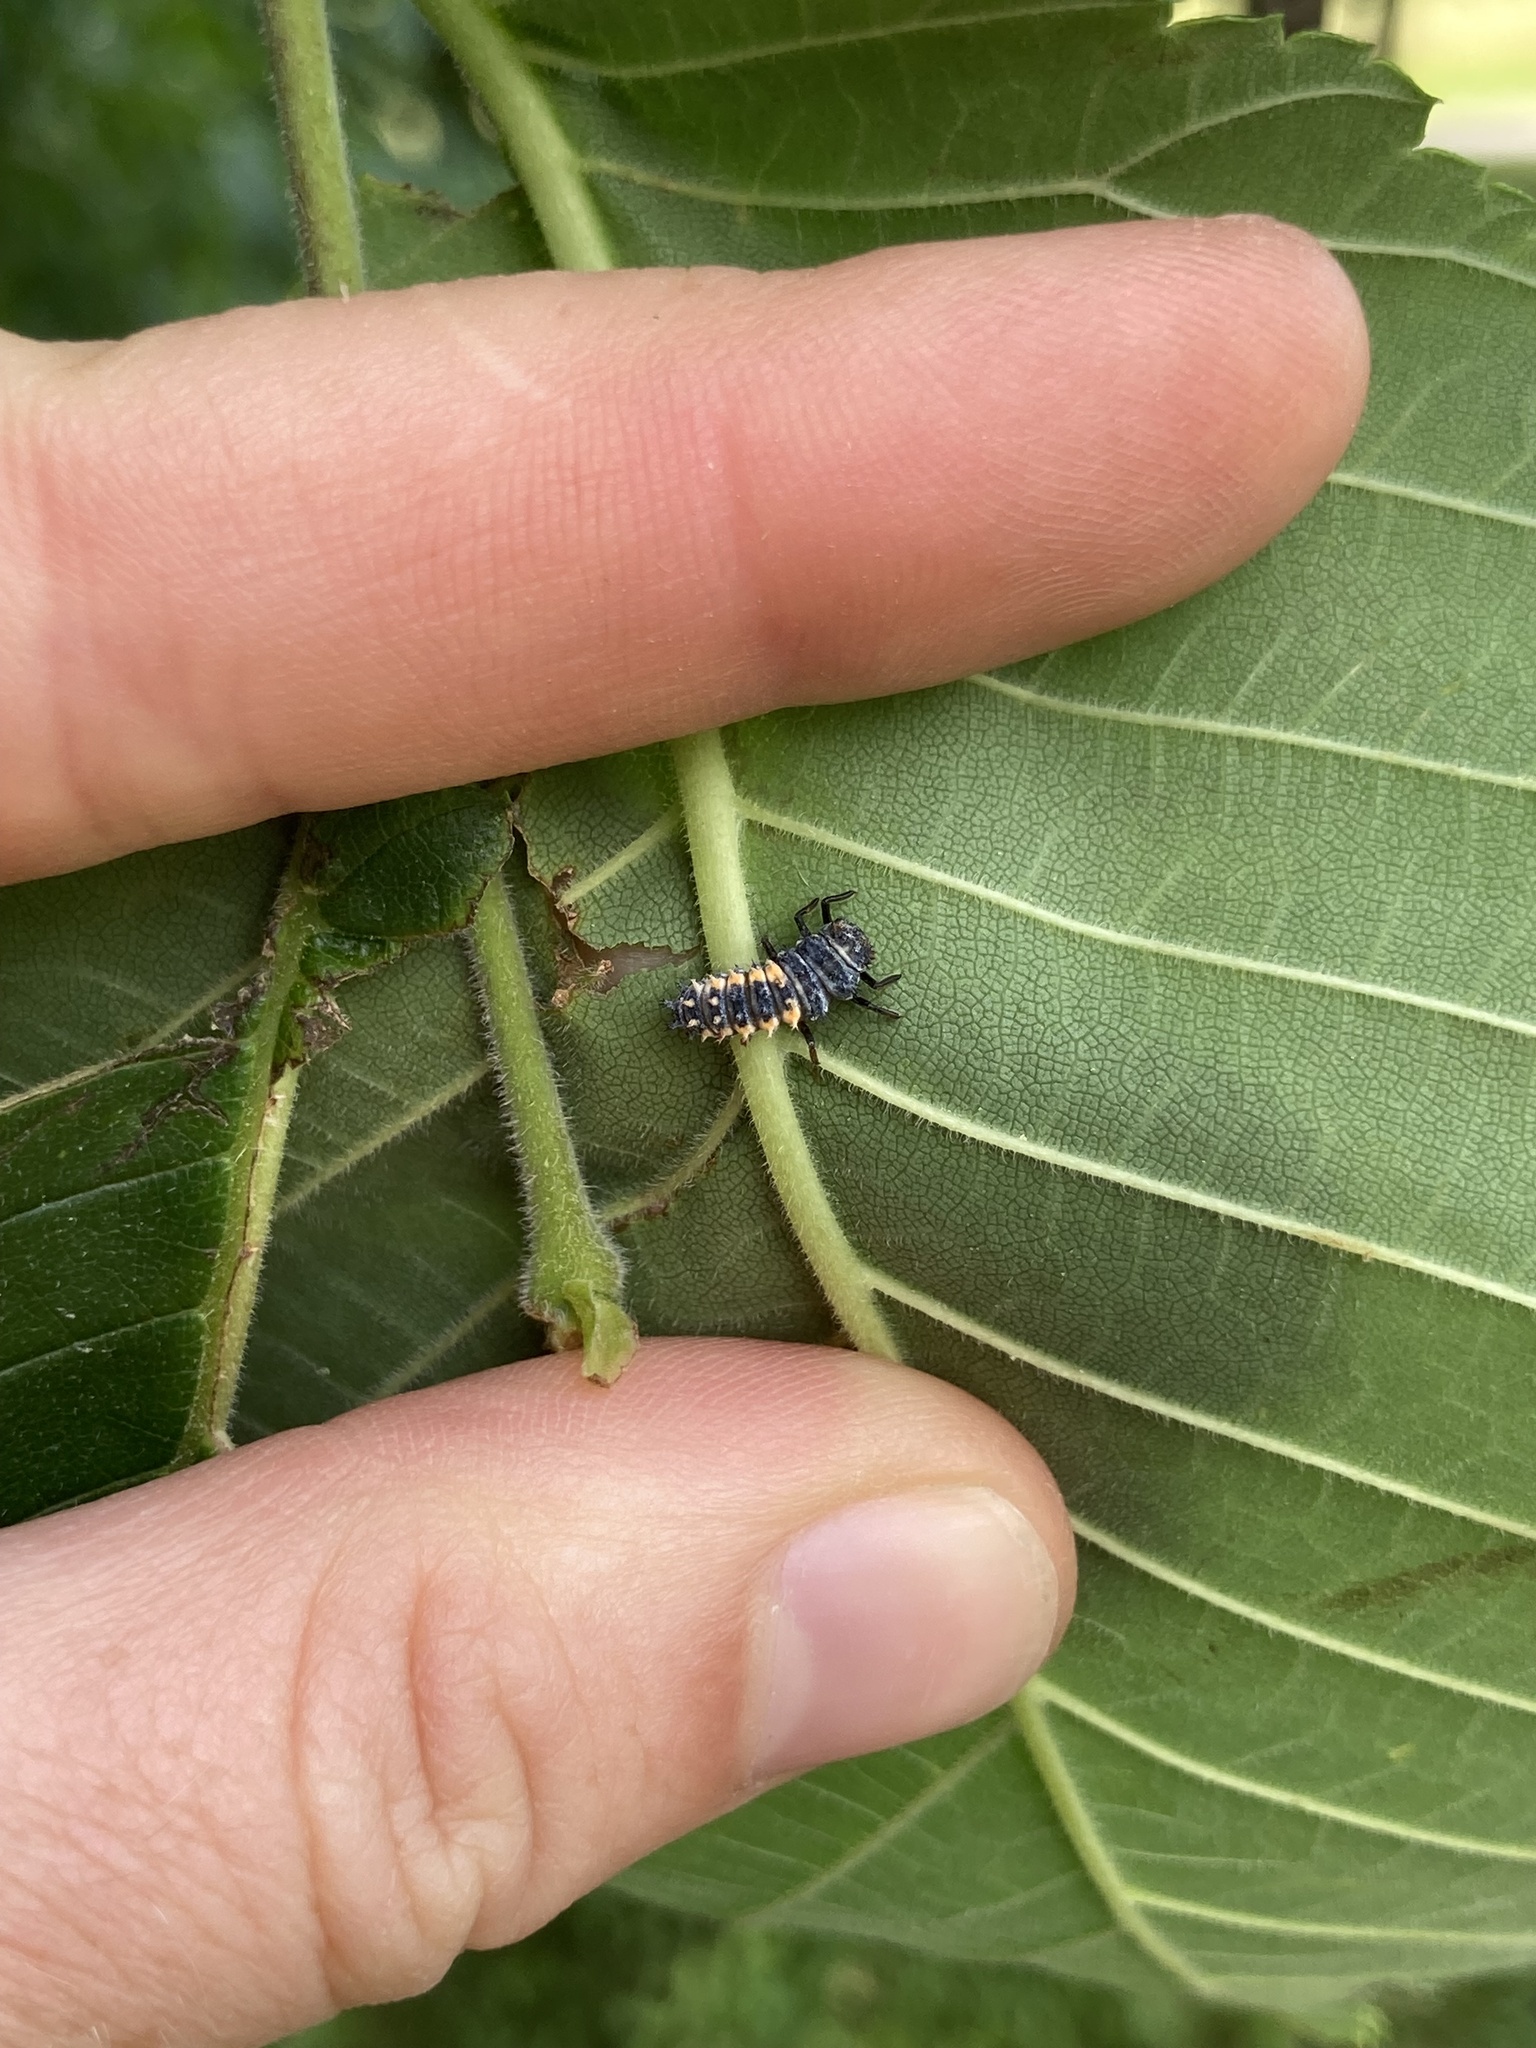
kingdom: Animalia
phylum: Arthropoda
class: Insecta
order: Coleoptera
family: Coccinellidae
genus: Harmonia
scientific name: Harmonia axyridis
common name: Harlequin ladybird
